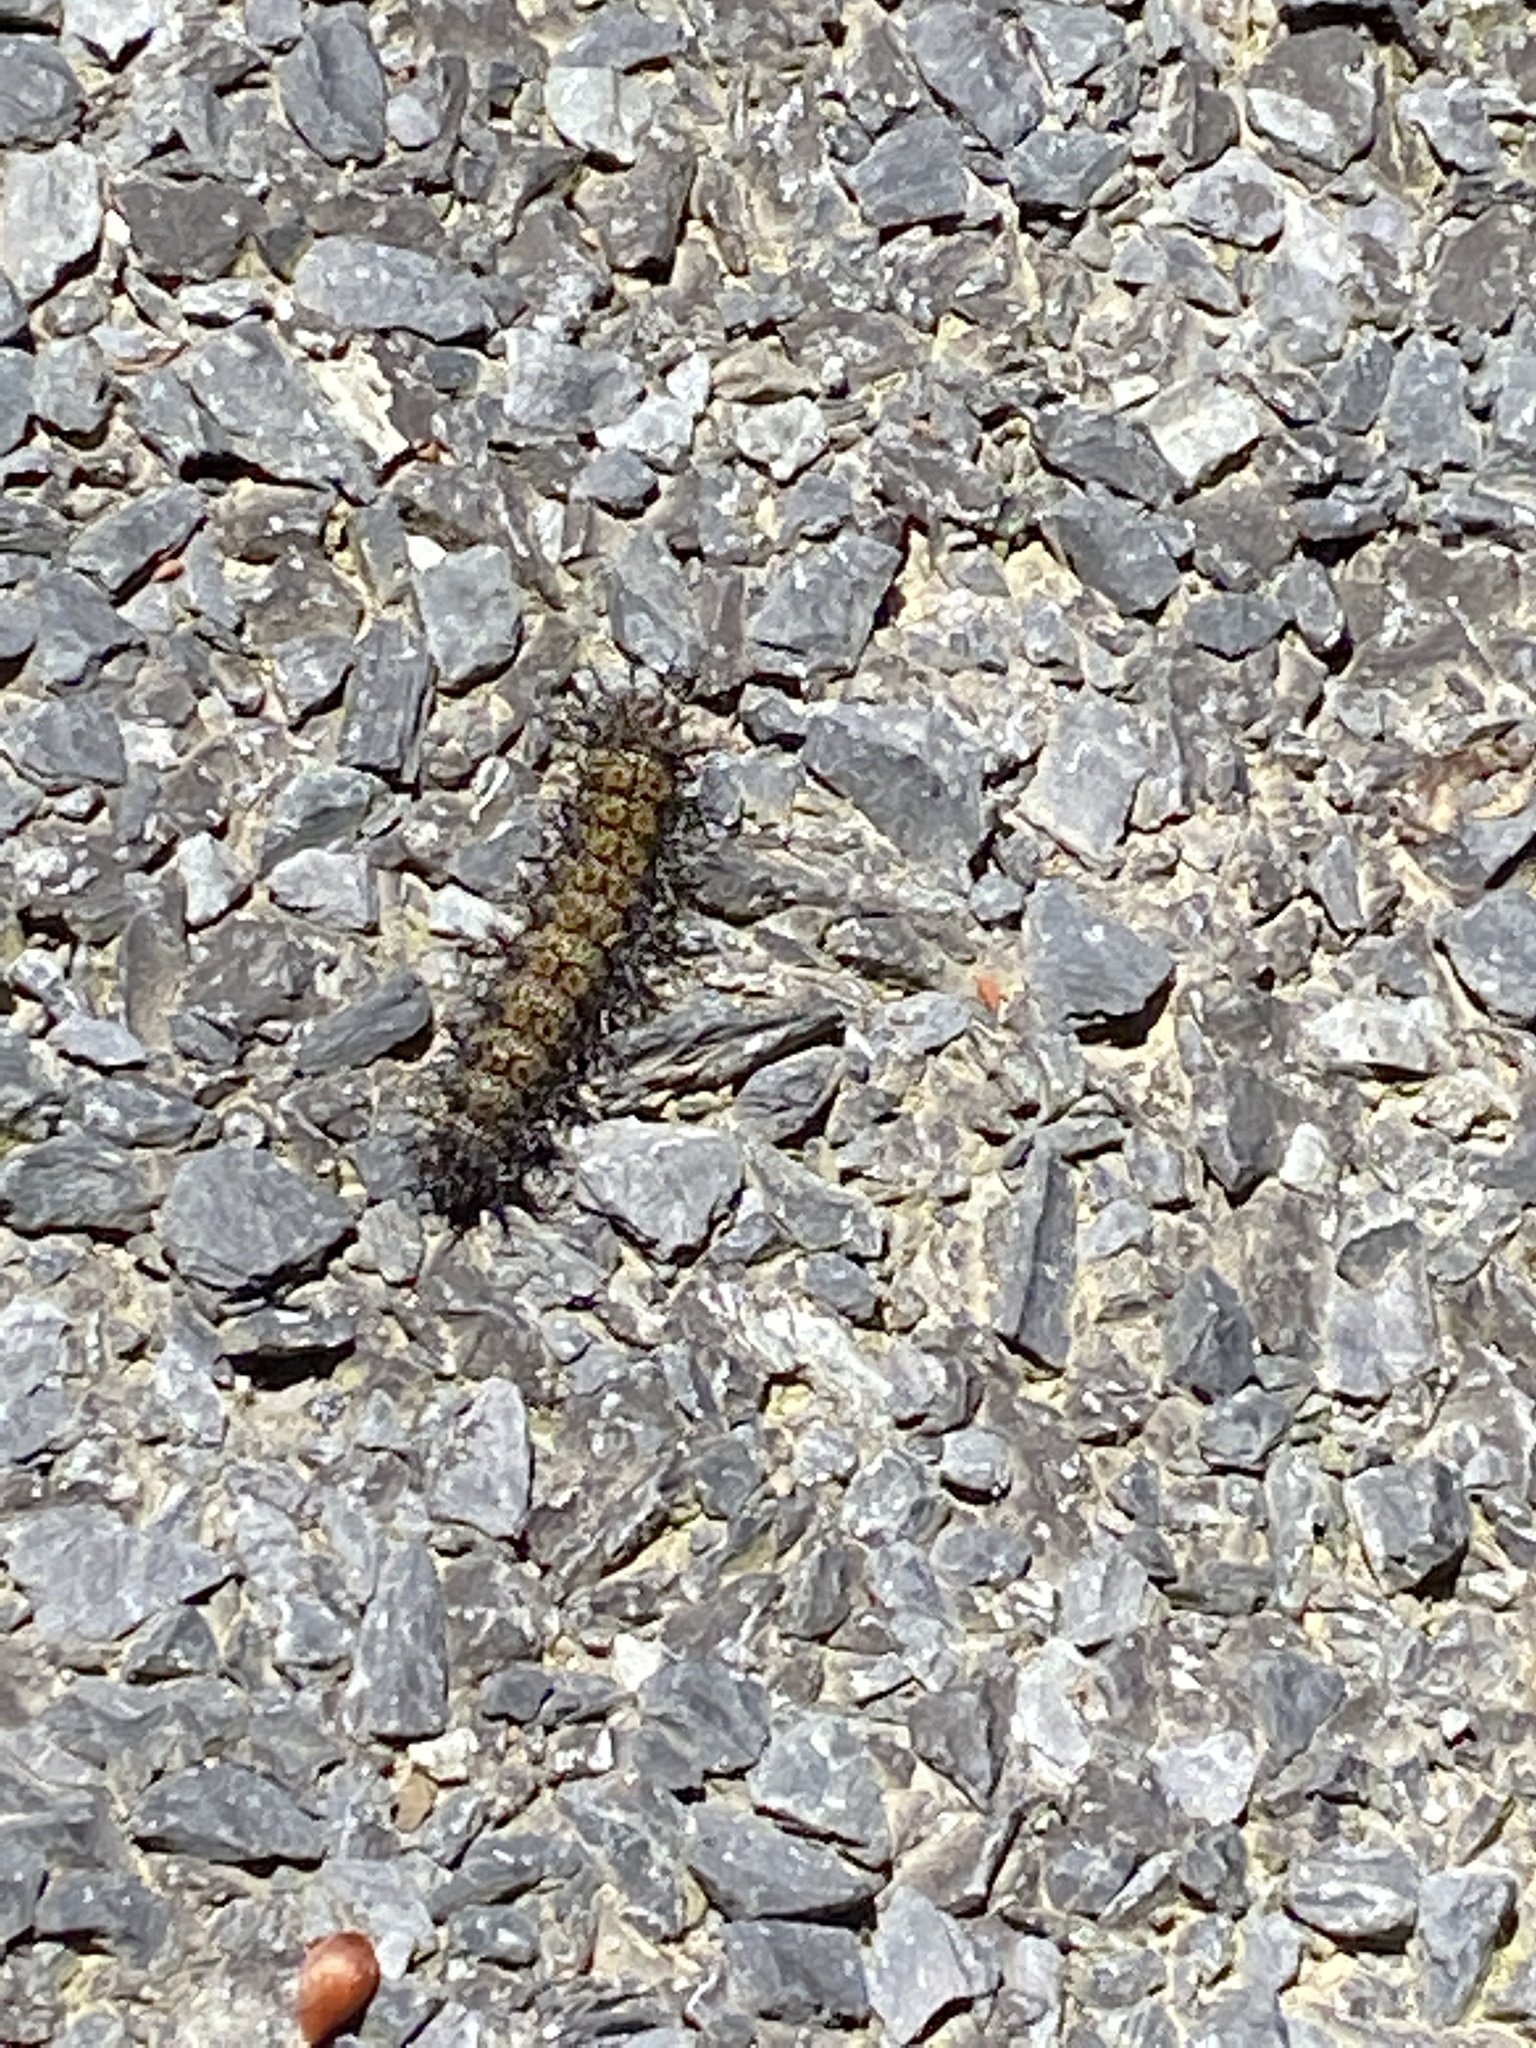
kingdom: Animalia
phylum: Arthropoda
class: Insecta
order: Lepidoptera
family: Saturniidae
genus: Hemileuca
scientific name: Hemileuca maia
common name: Eastern buckmoth
